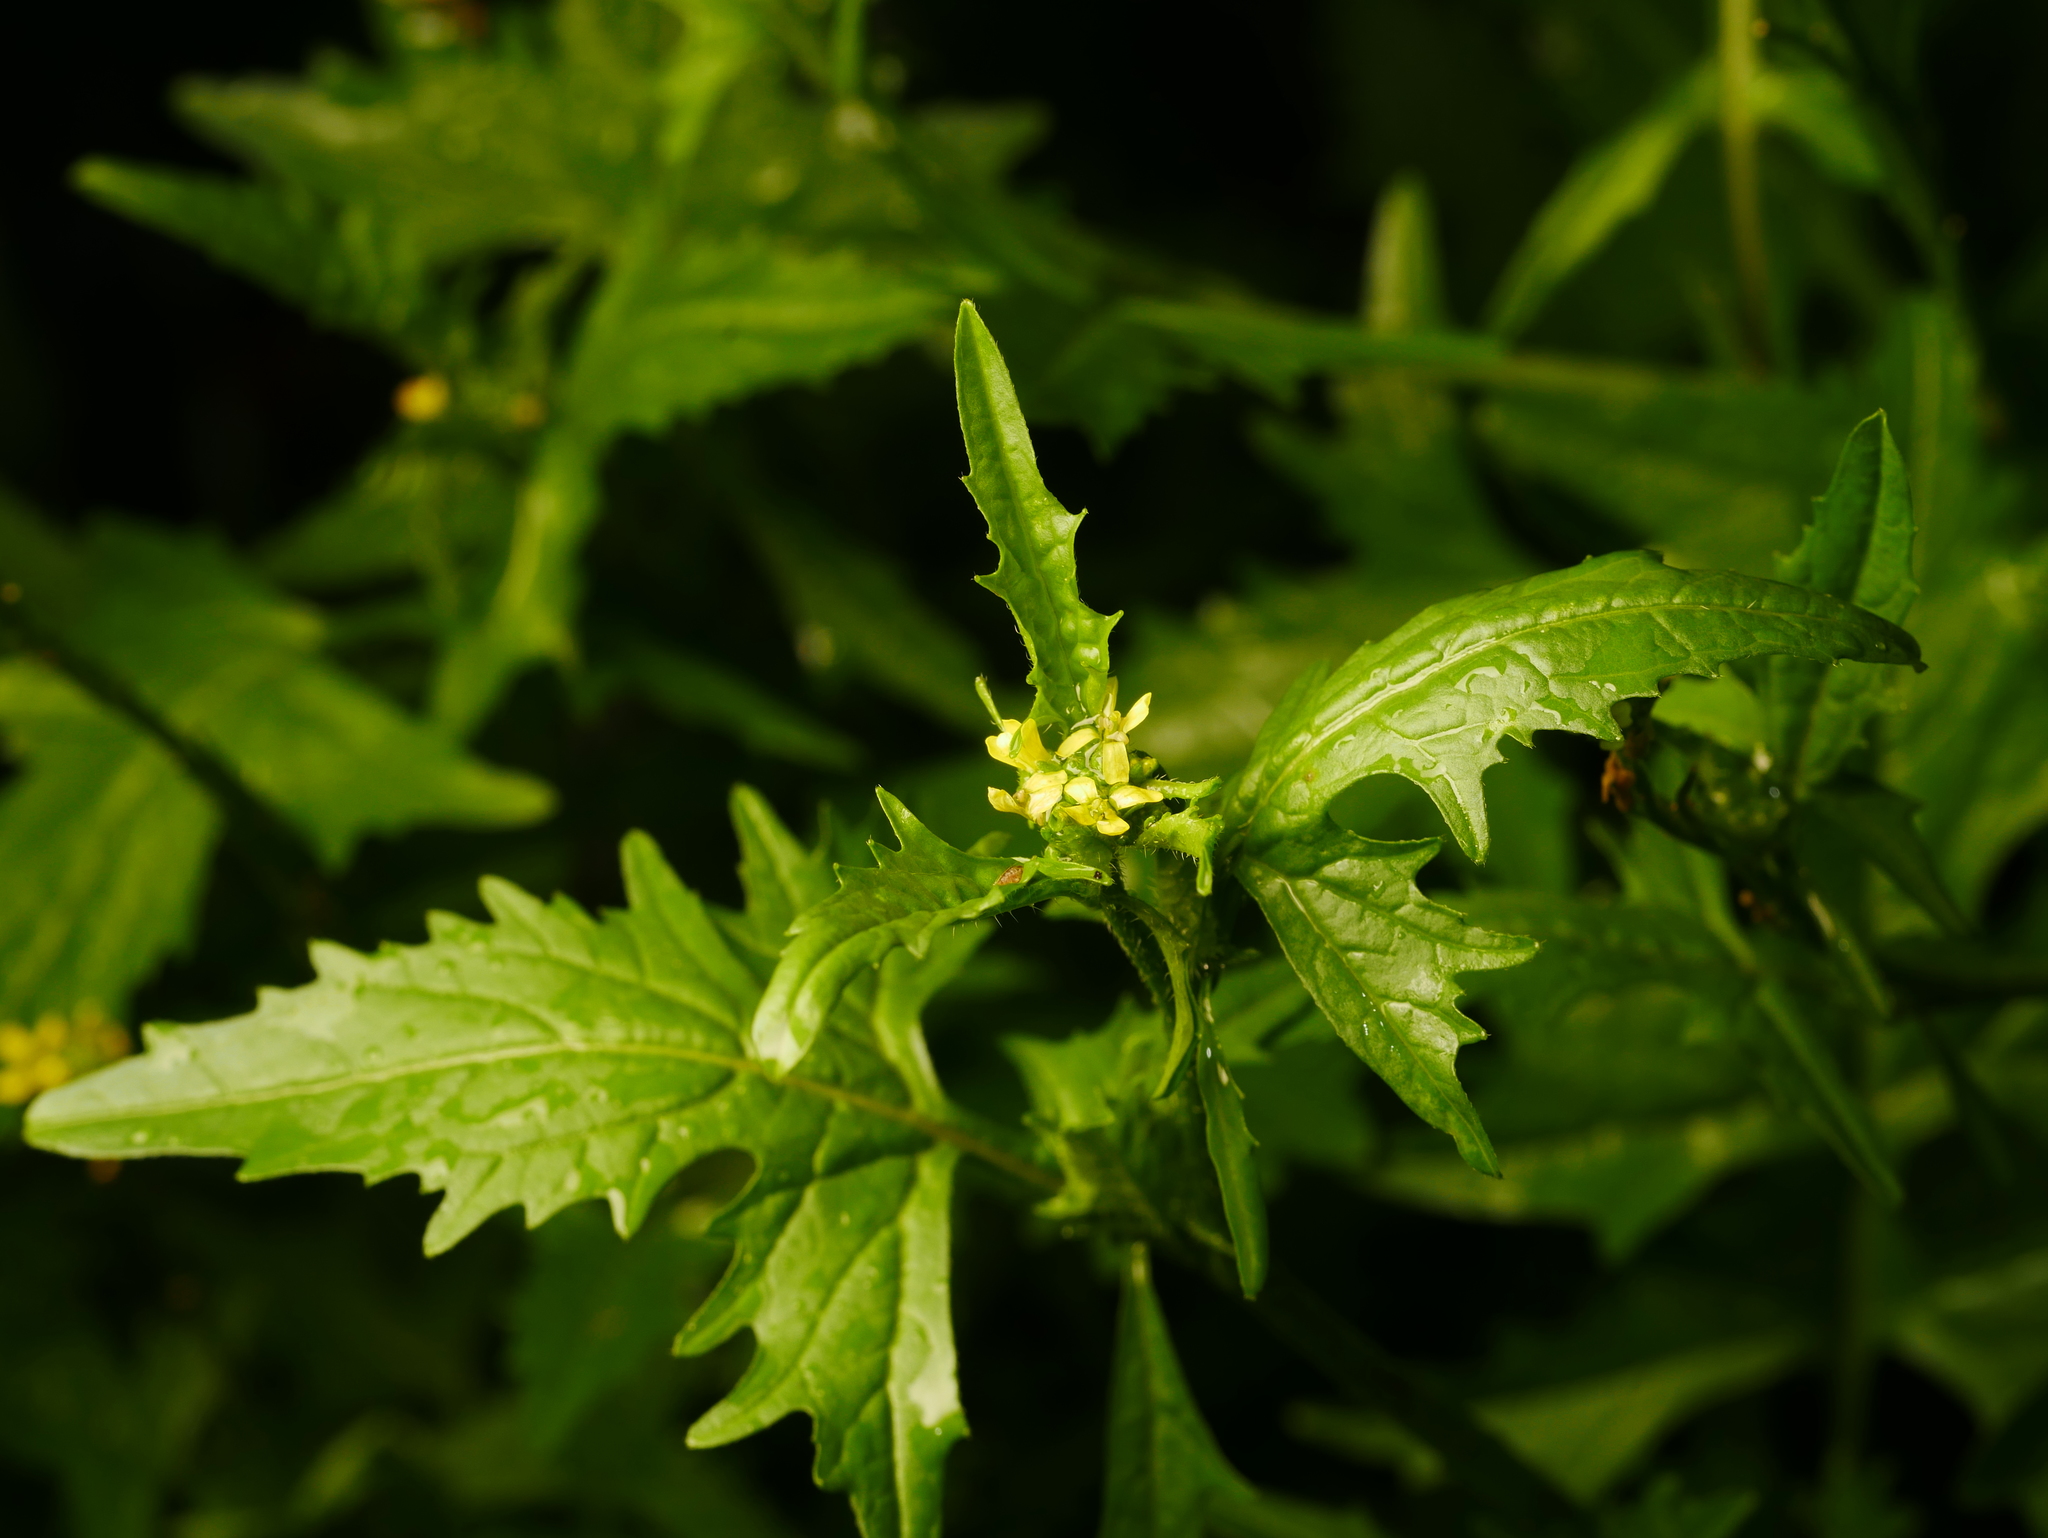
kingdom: Plantae
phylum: Tracheophyta
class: Magnoliopsida
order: Brassicales
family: Brassicaceae
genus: Sisymbrium
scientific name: Sisymbrium officinale
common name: Hedge mustard
